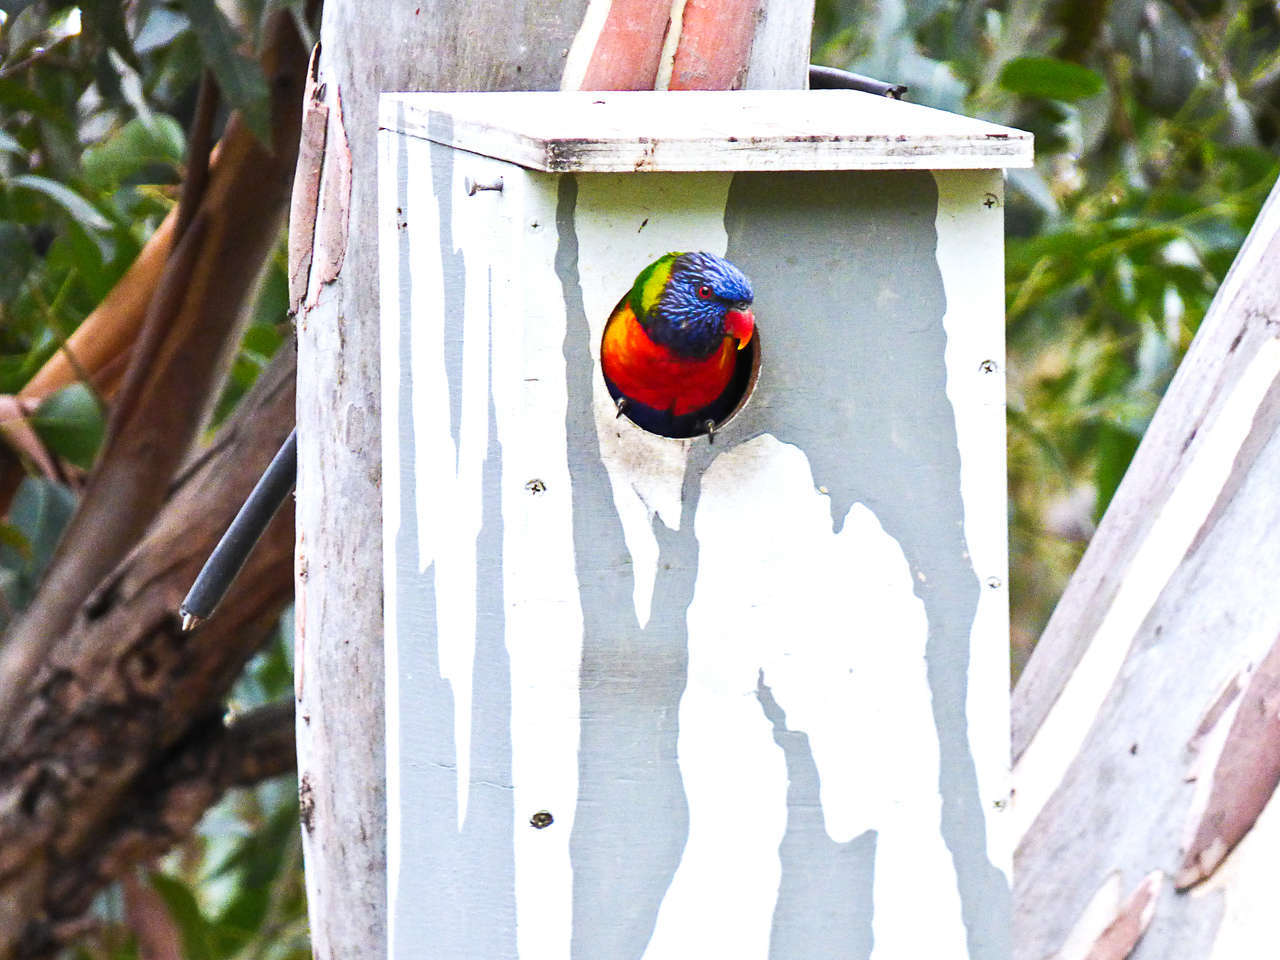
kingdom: Animalia
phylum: Chordata
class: Aves
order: Psittaciformes
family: Psittacidae
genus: Trichoglossus
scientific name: Trichoglossus haematodus
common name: Coconut lorikeet
